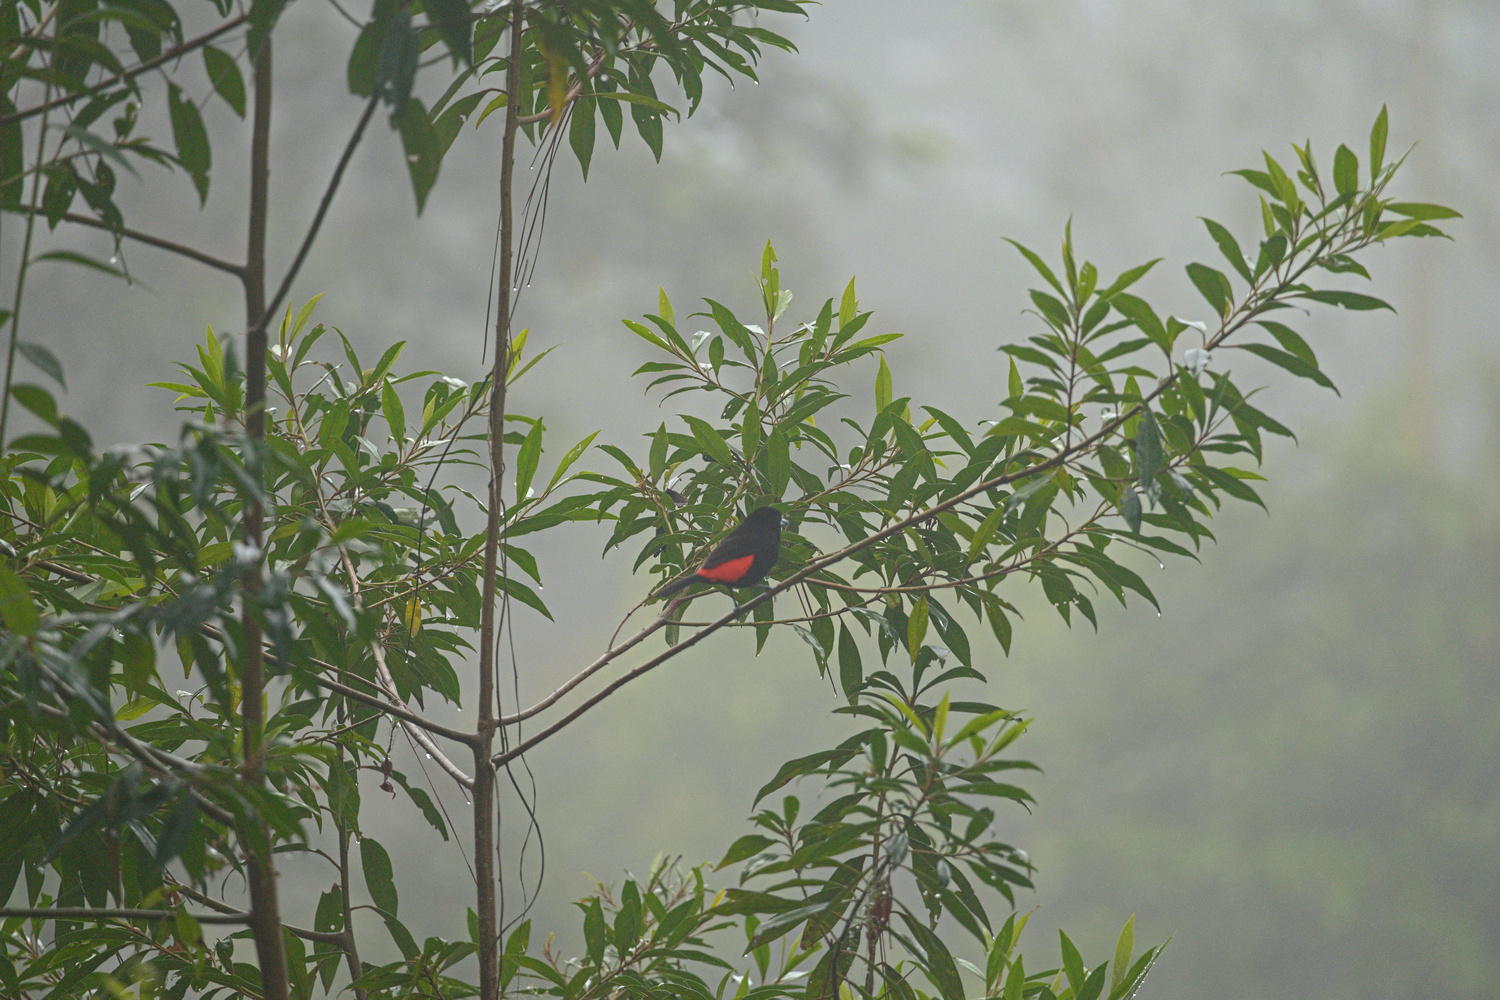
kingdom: Animalia
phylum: Chordata
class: Aves
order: Passeriformes
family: Thraupidae
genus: Ramphocelus
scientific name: Ramphocelus passerinii
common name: Passerini's tanager
